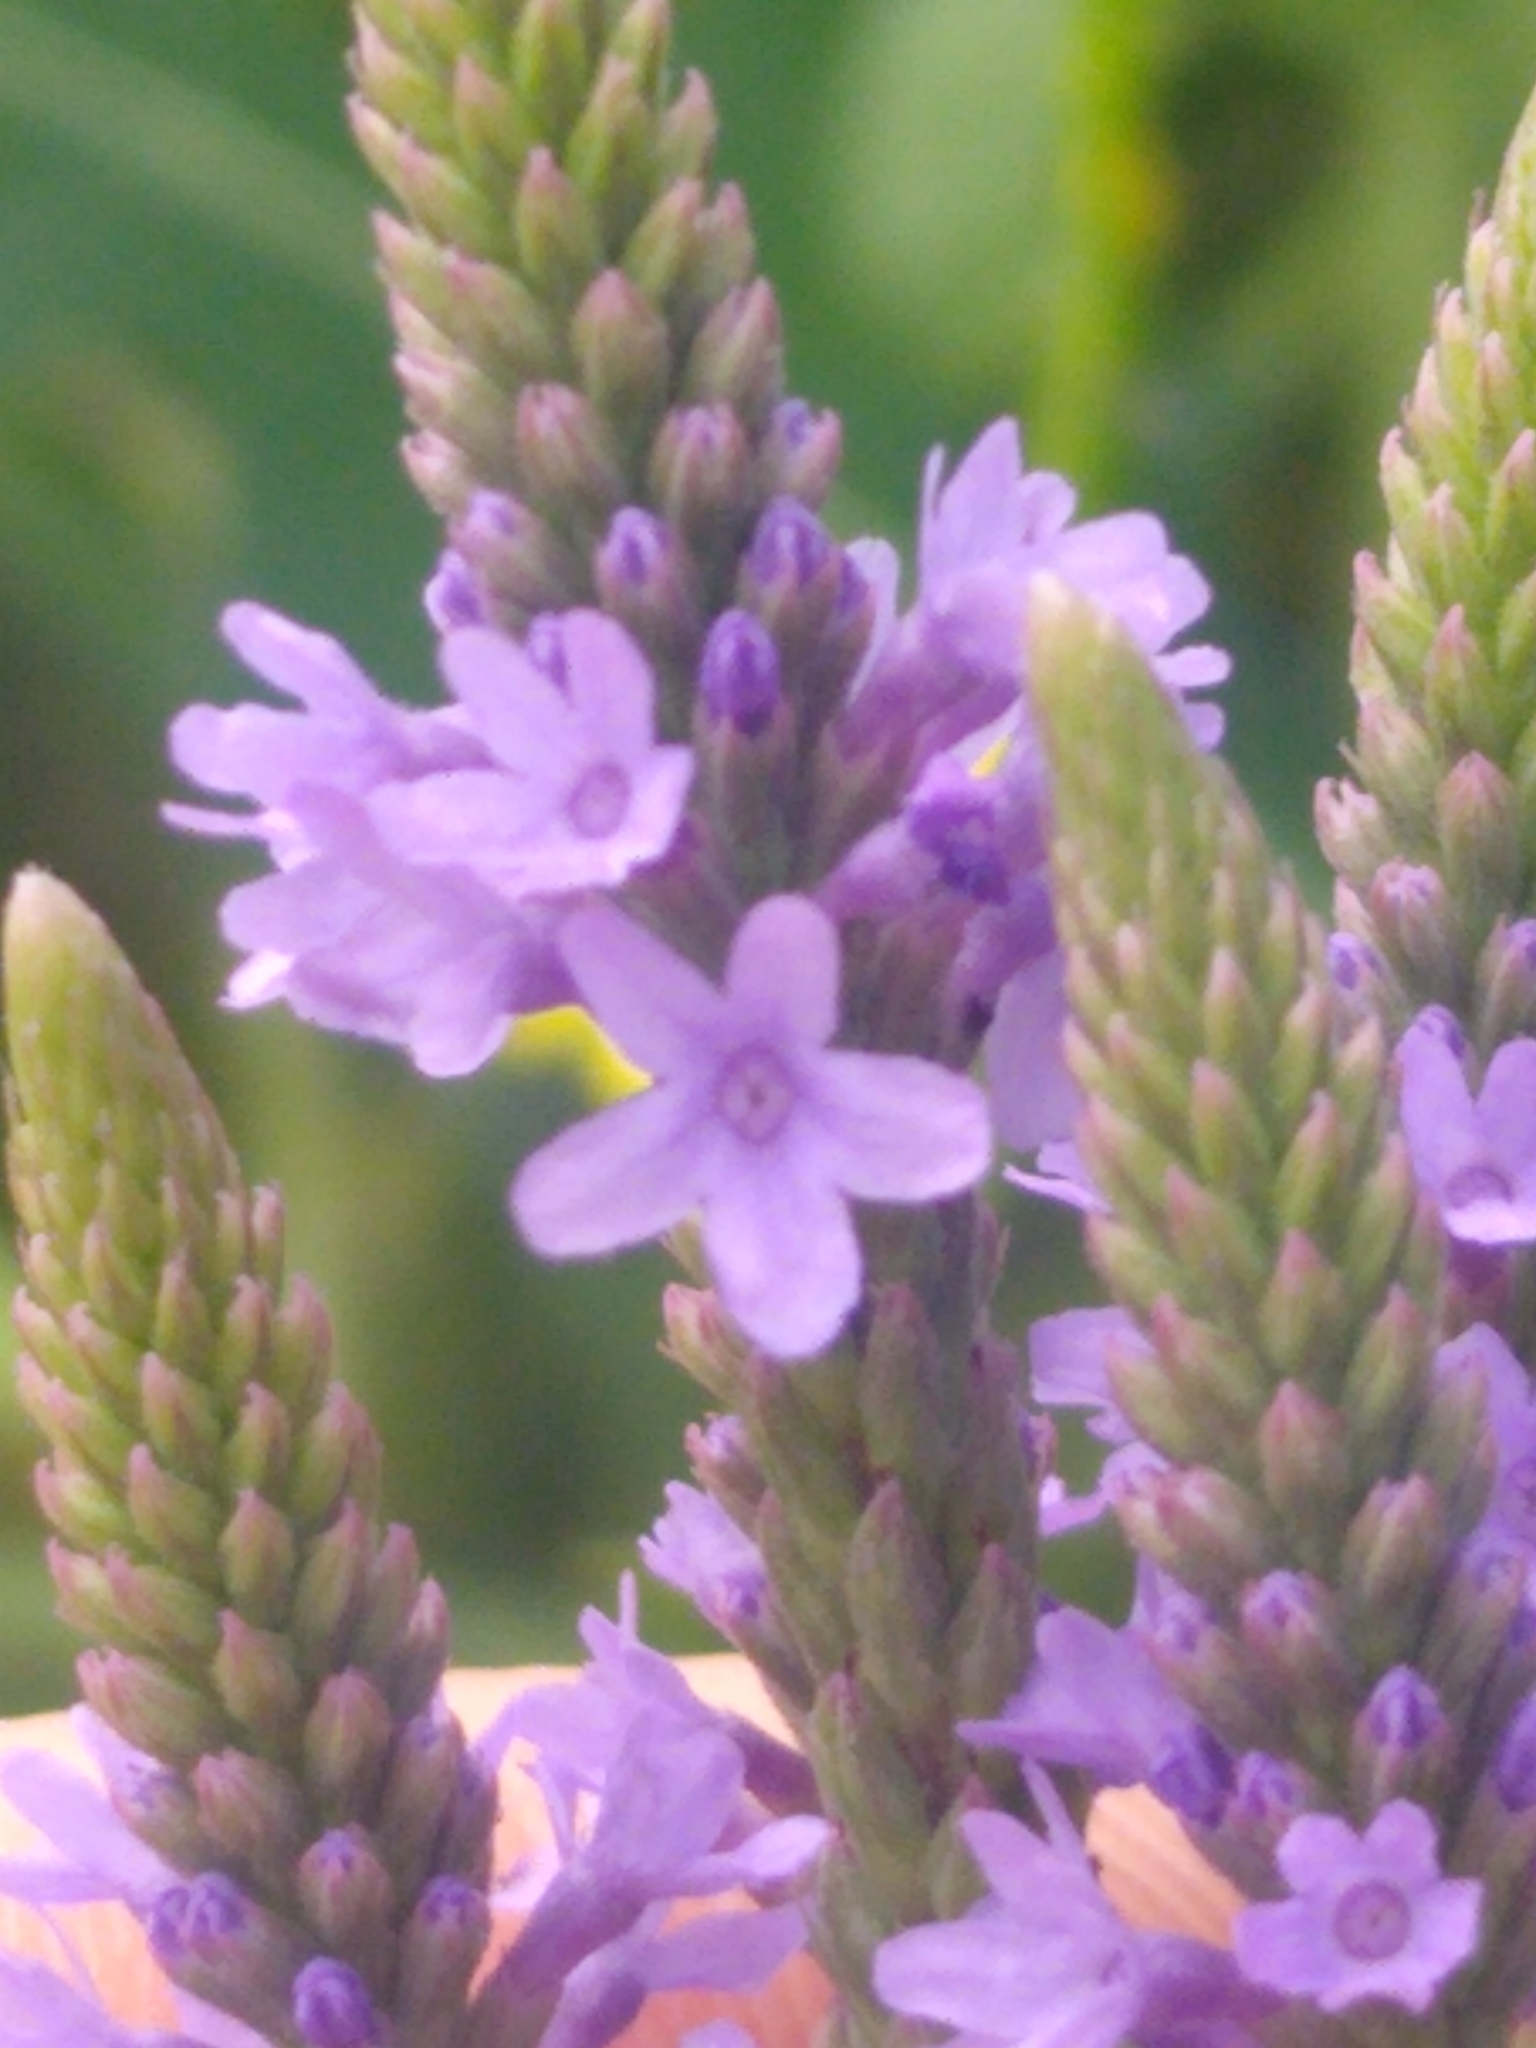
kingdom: Plantae
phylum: Tracheophyta
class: Magnoliopsida
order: Lamiales
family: Verbenaceae
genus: Verbena
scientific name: Verbena hastata
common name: American blue vervain
